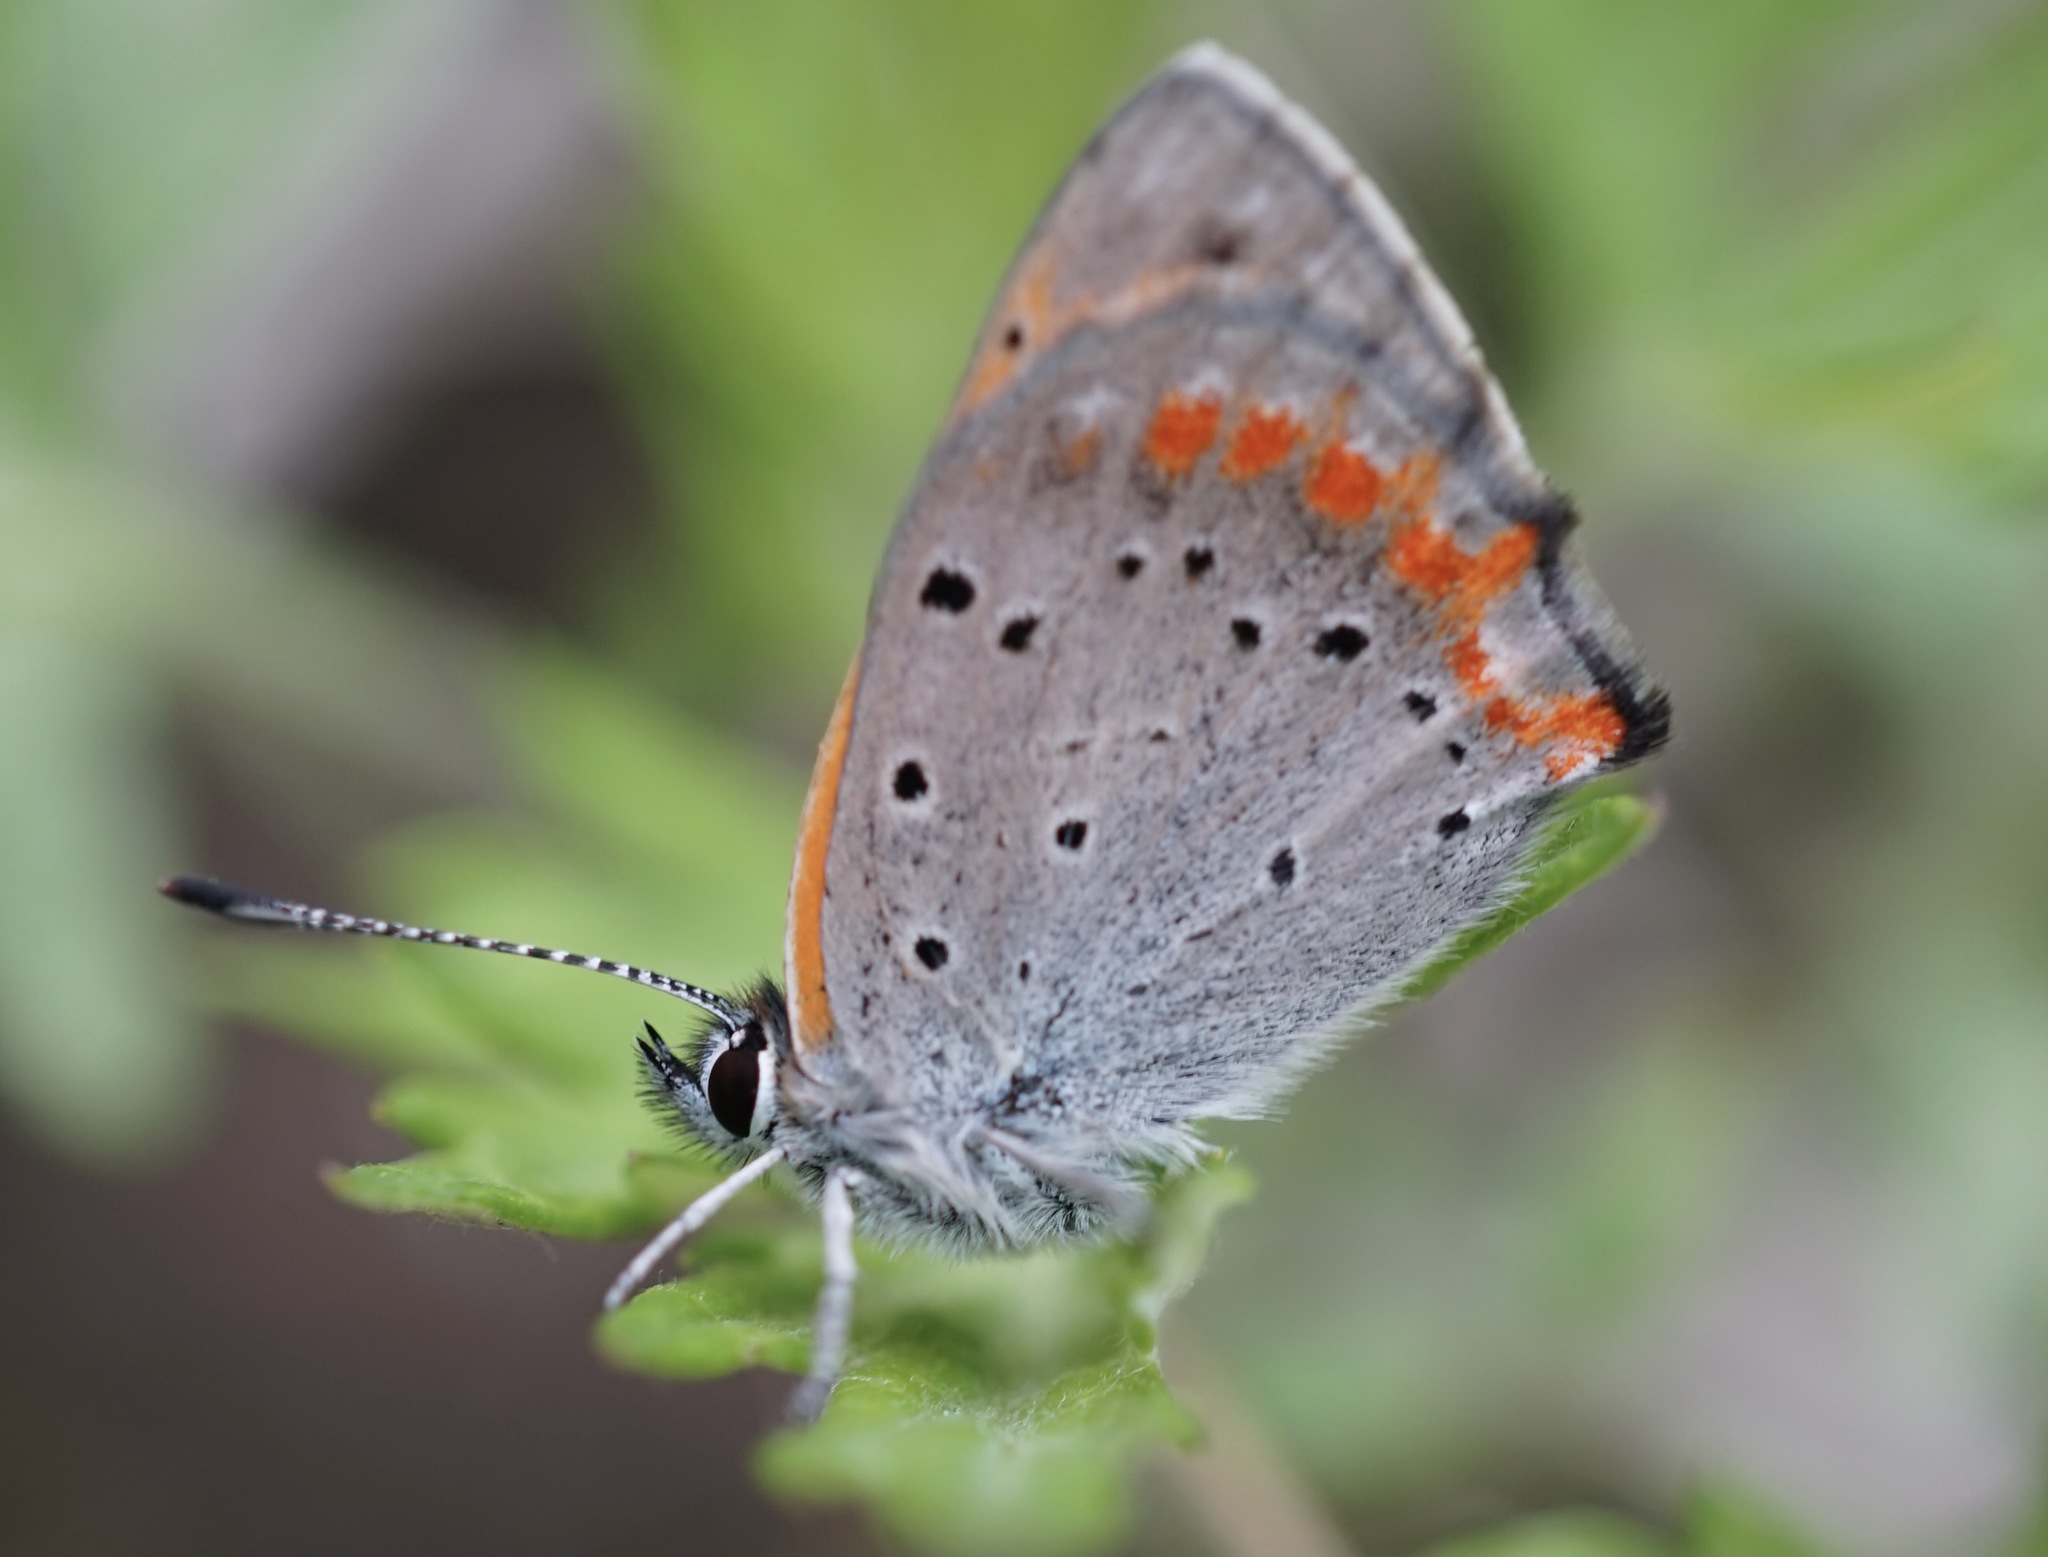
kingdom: Animalia
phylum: Arthropoda
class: Insecta
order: Lepidoptera
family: Lycaenidae
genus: Lycaena
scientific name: Lycaena phlaeas
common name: Small copper
